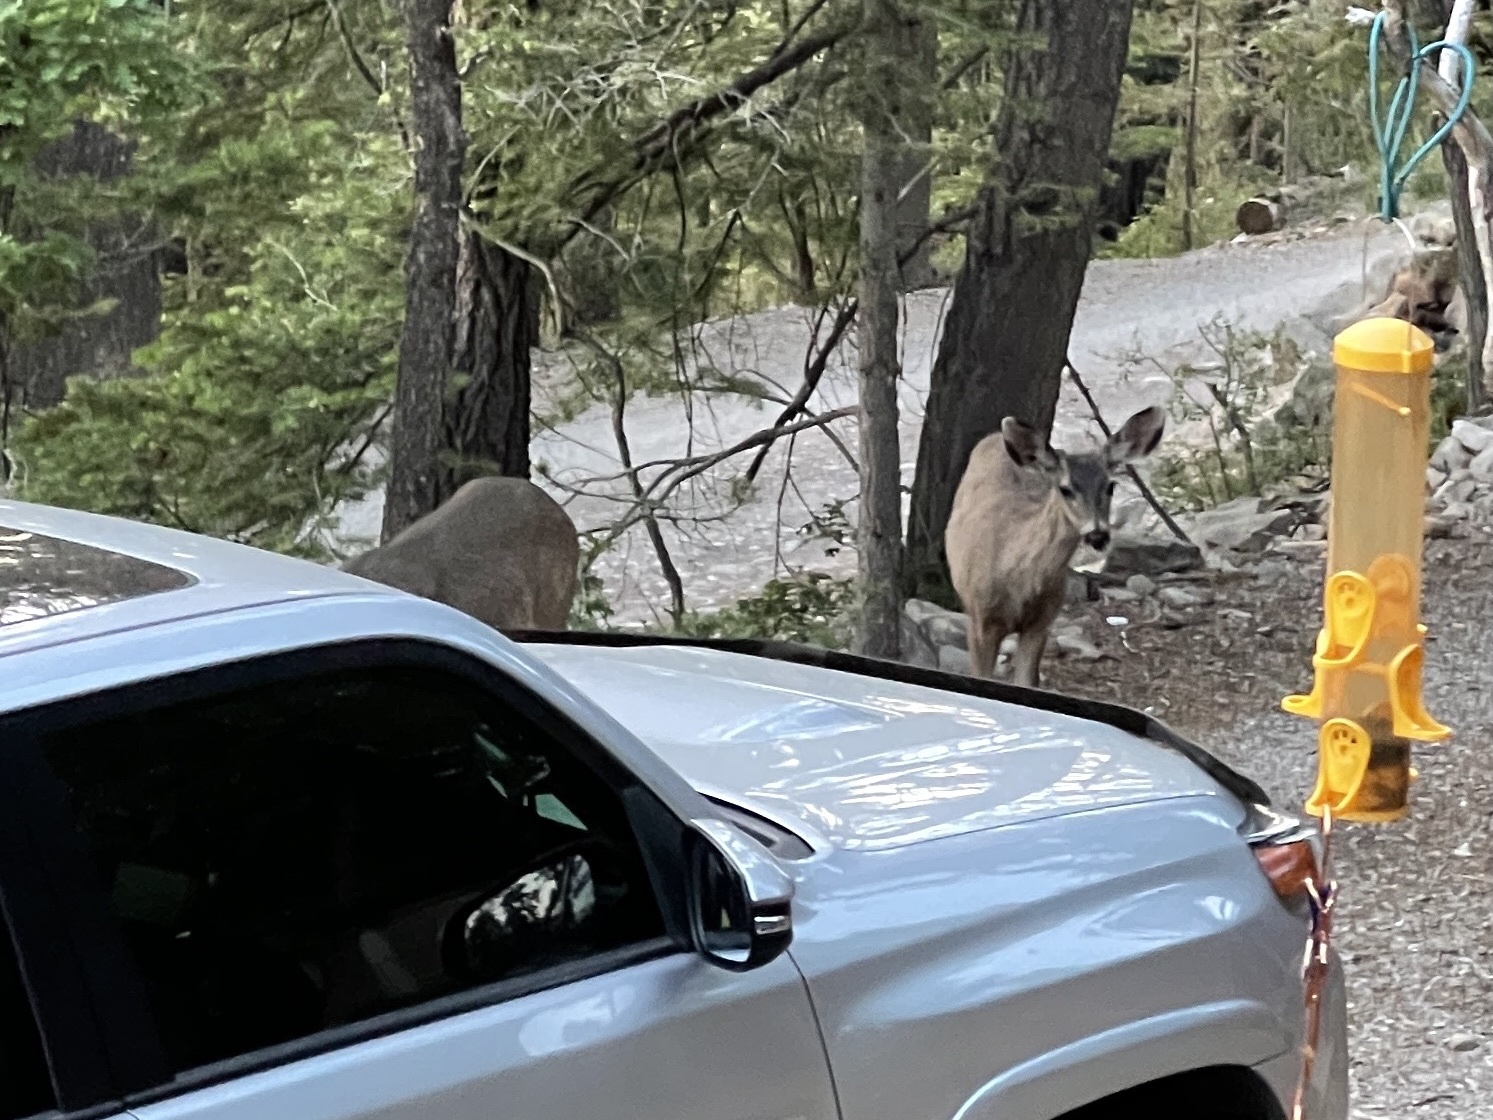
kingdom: Animalia
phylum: Chordata
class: Mammalia
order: Artiodactyla
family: Cervidae
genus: Odocoileus
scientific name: Odocoileus hemionus
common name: Mule deer
